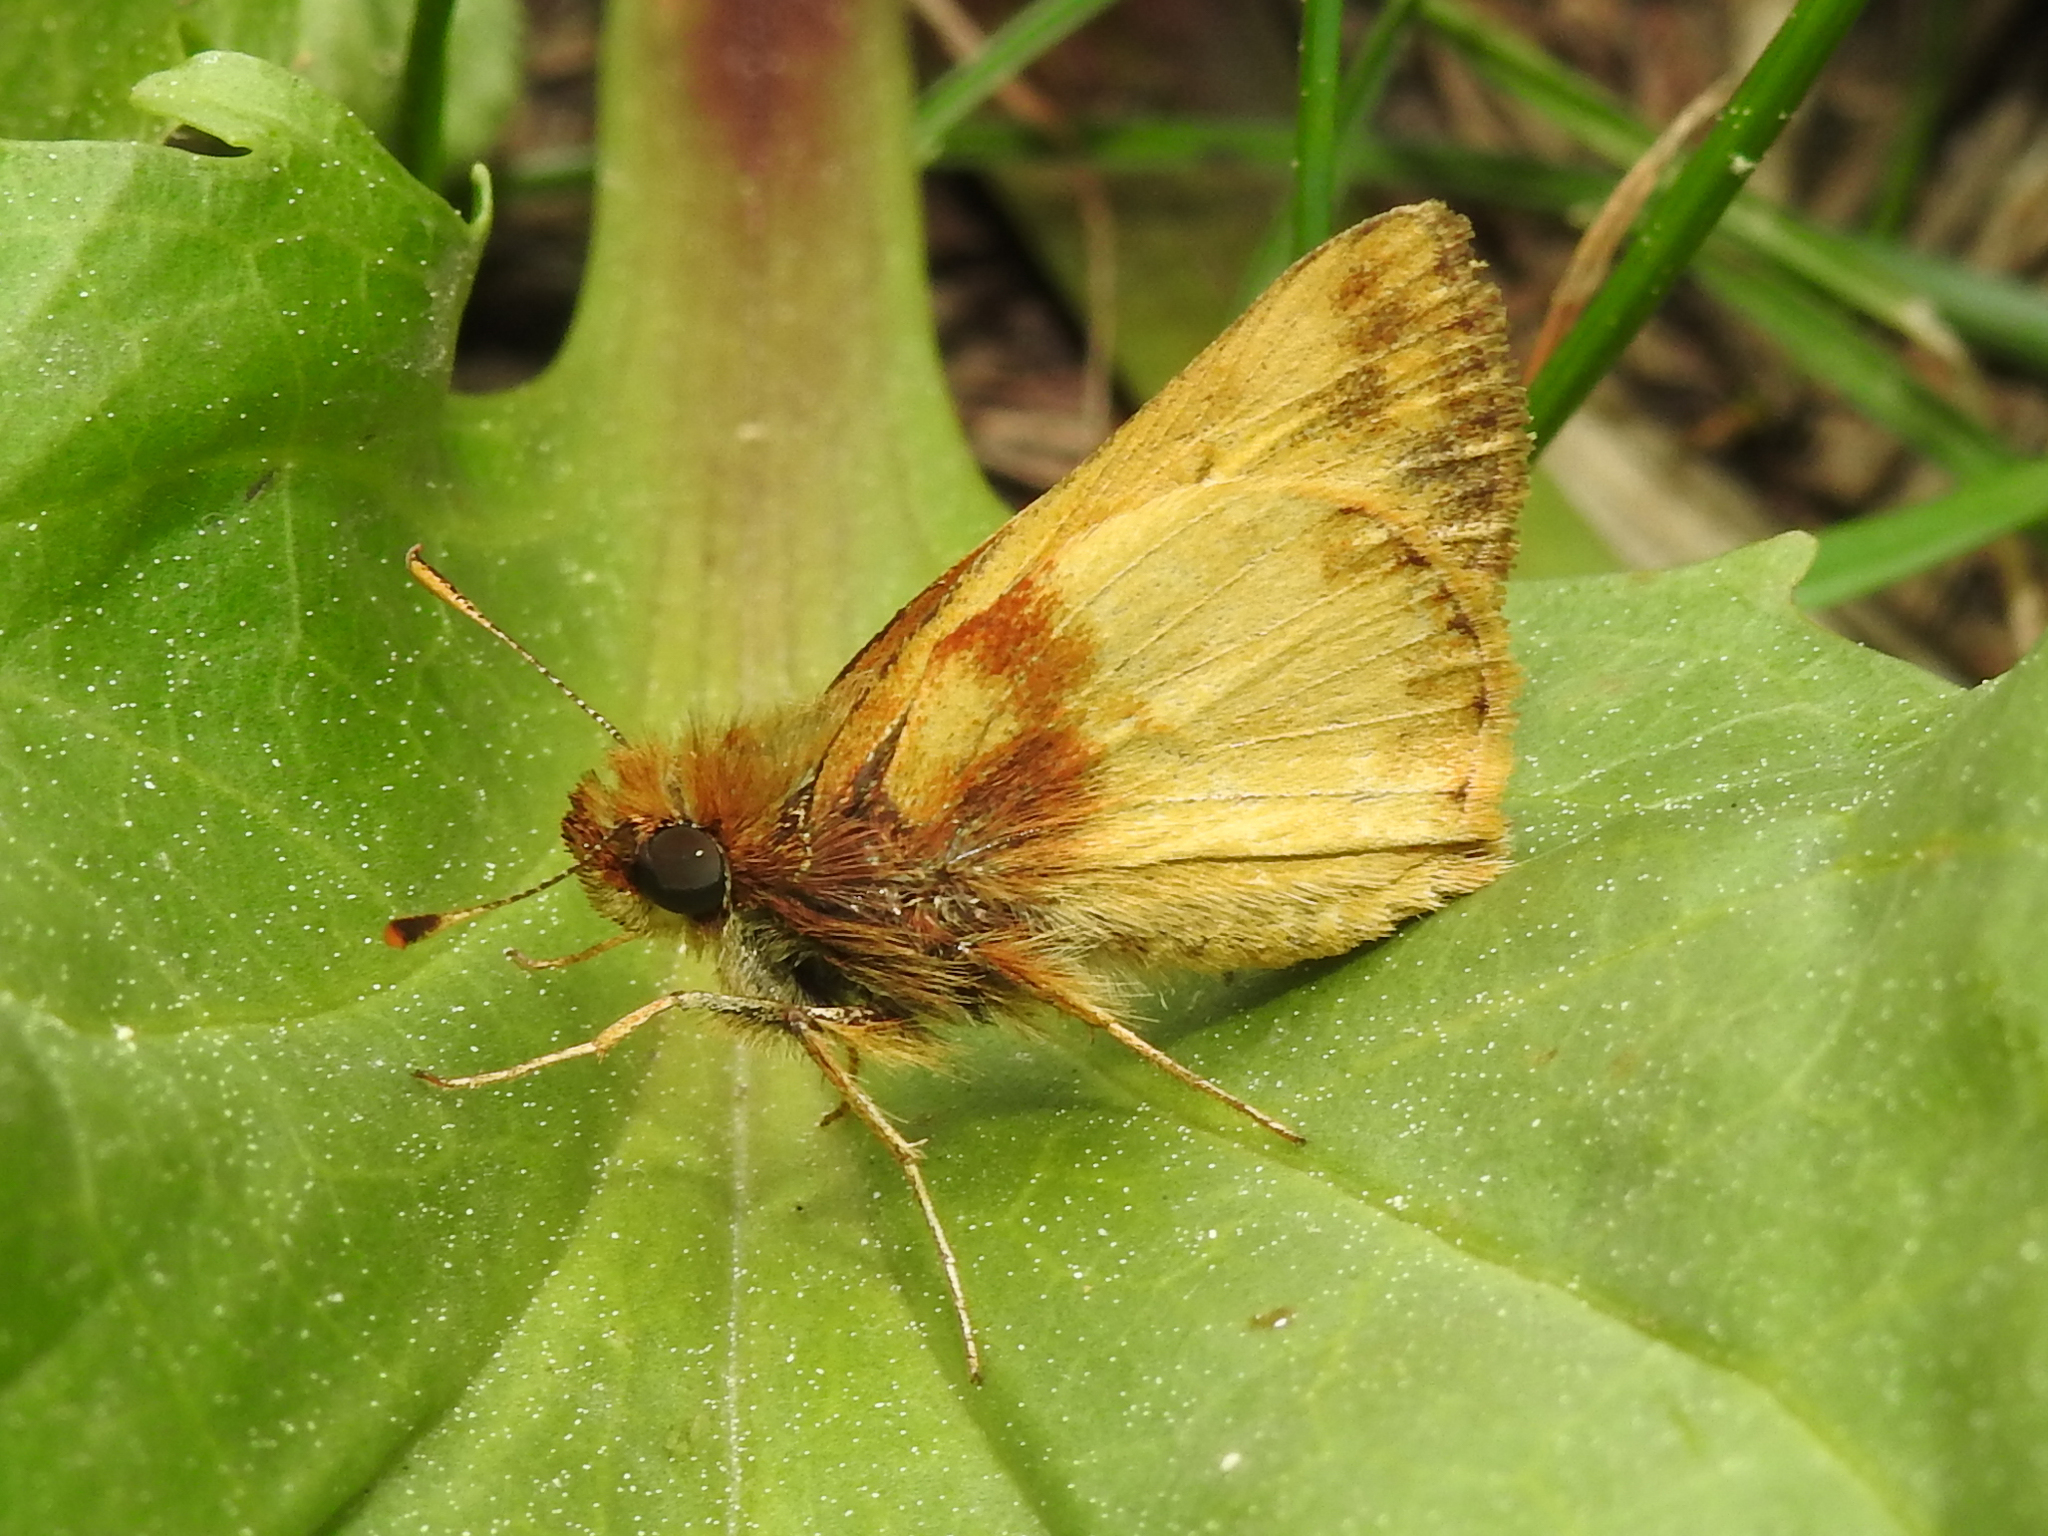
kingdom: Animalia
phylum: Arthropoda
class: Insecta
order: Lepidoptera
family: Hesperiidae
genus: Lon
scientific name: Lon zabulon
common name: Zabulon skipper
